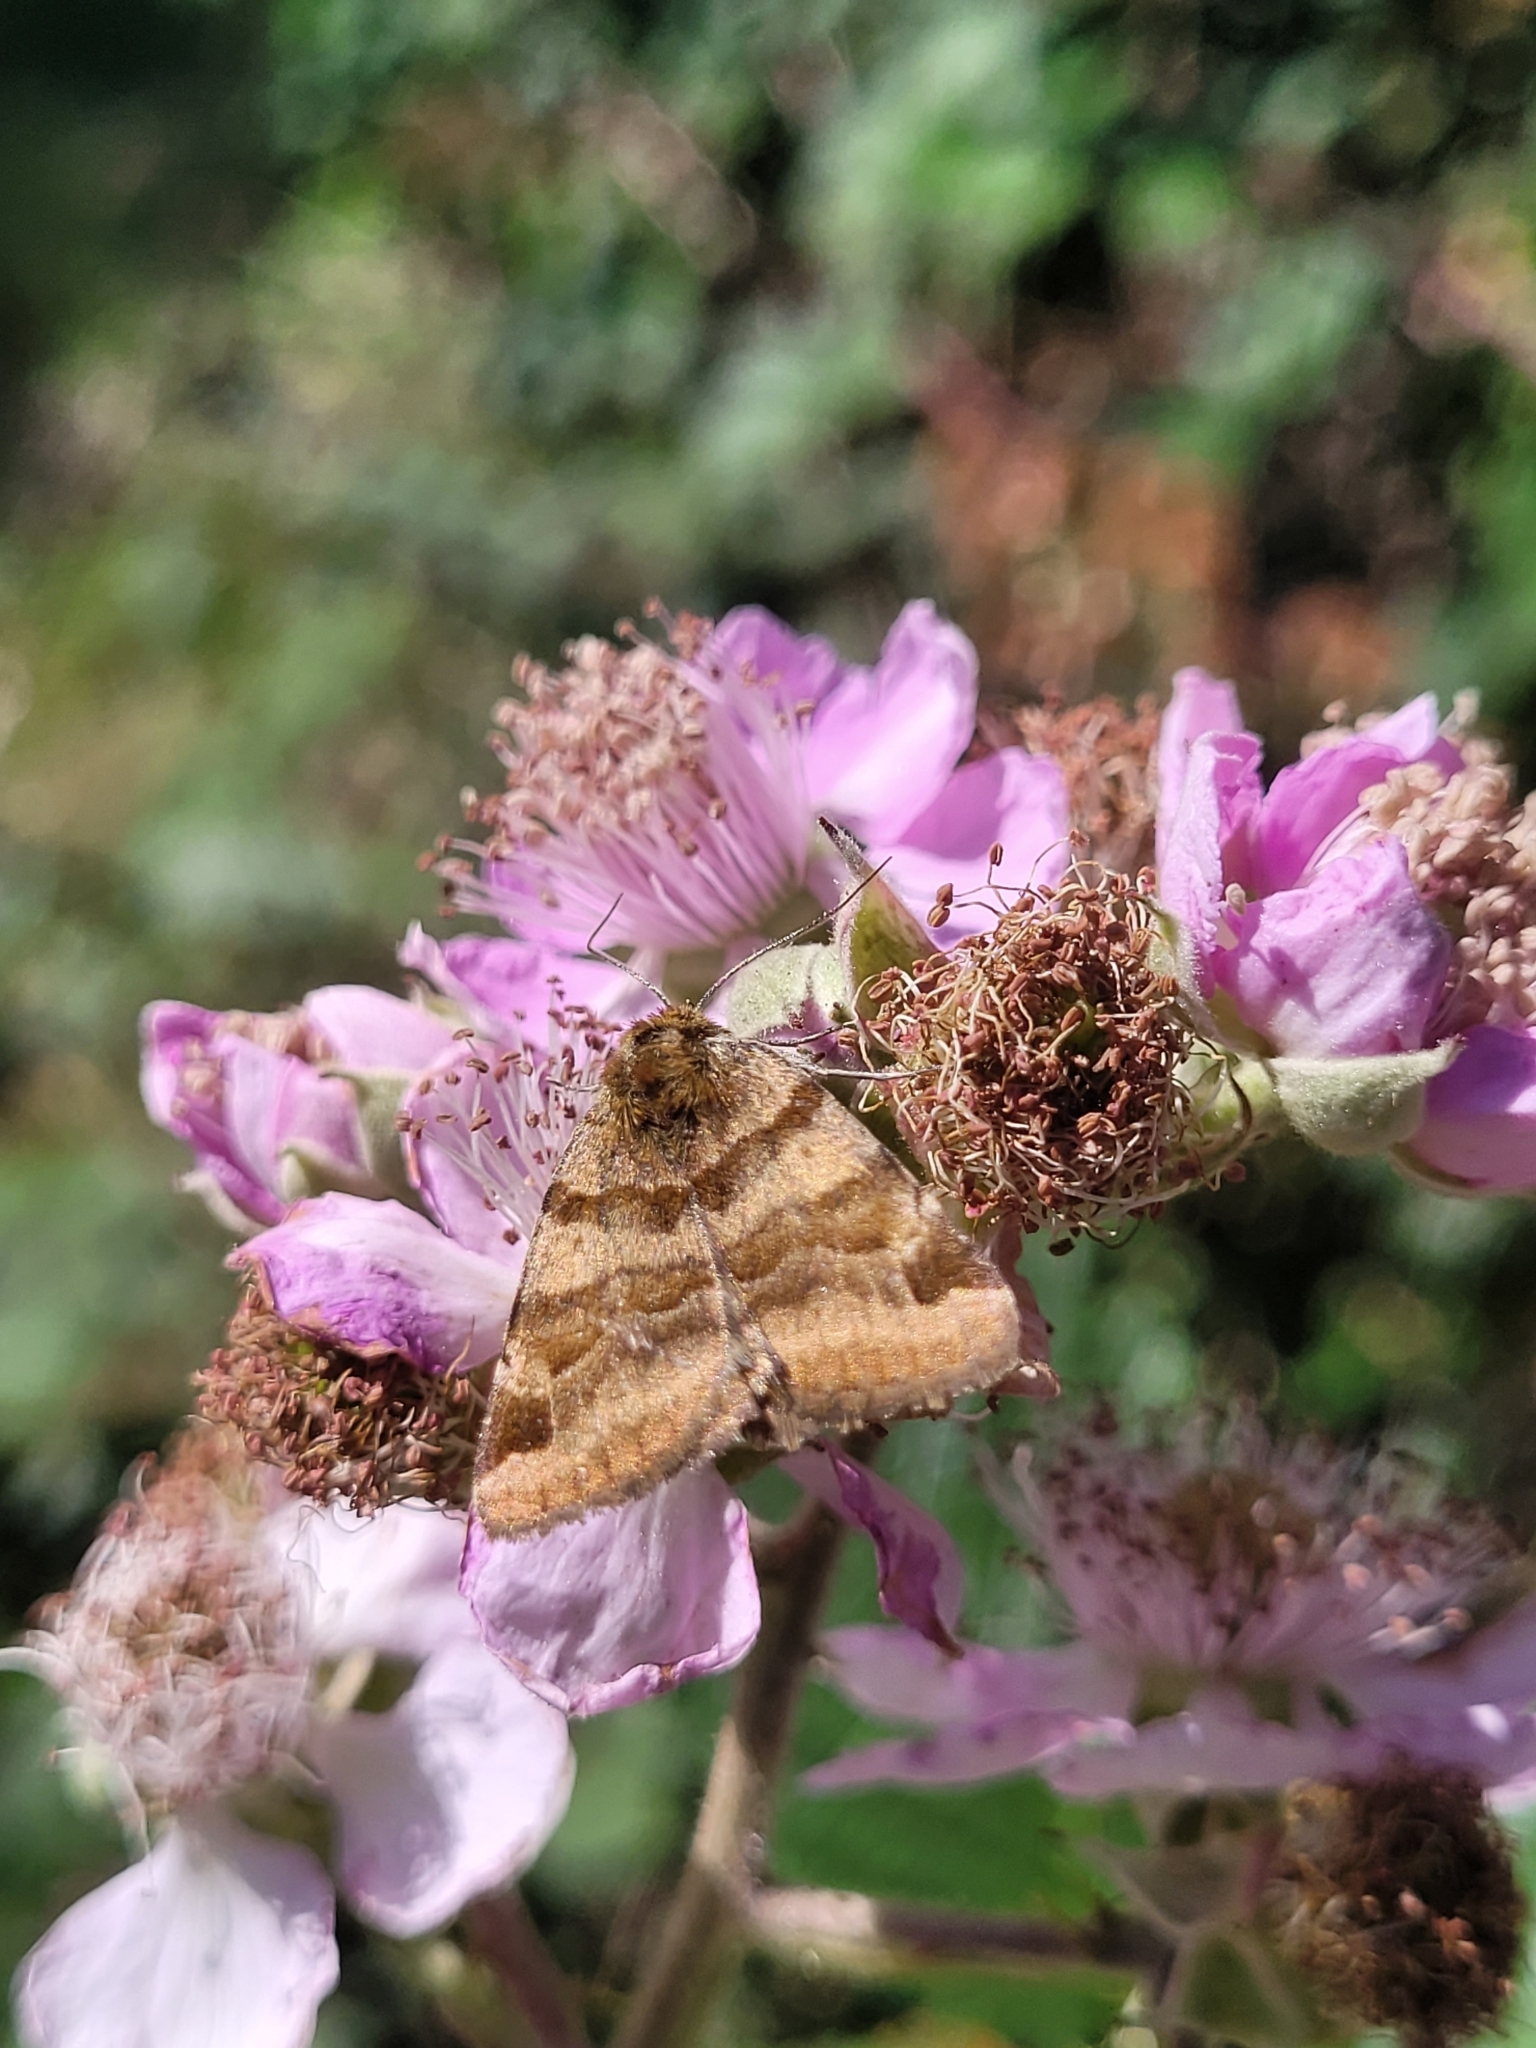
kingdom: Animalia
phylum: Arthropoda
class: Insecta
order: Lepidoptera
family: Erebidae
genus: Euclidia
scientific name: Euclidia glyphica
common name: Burnet companion
